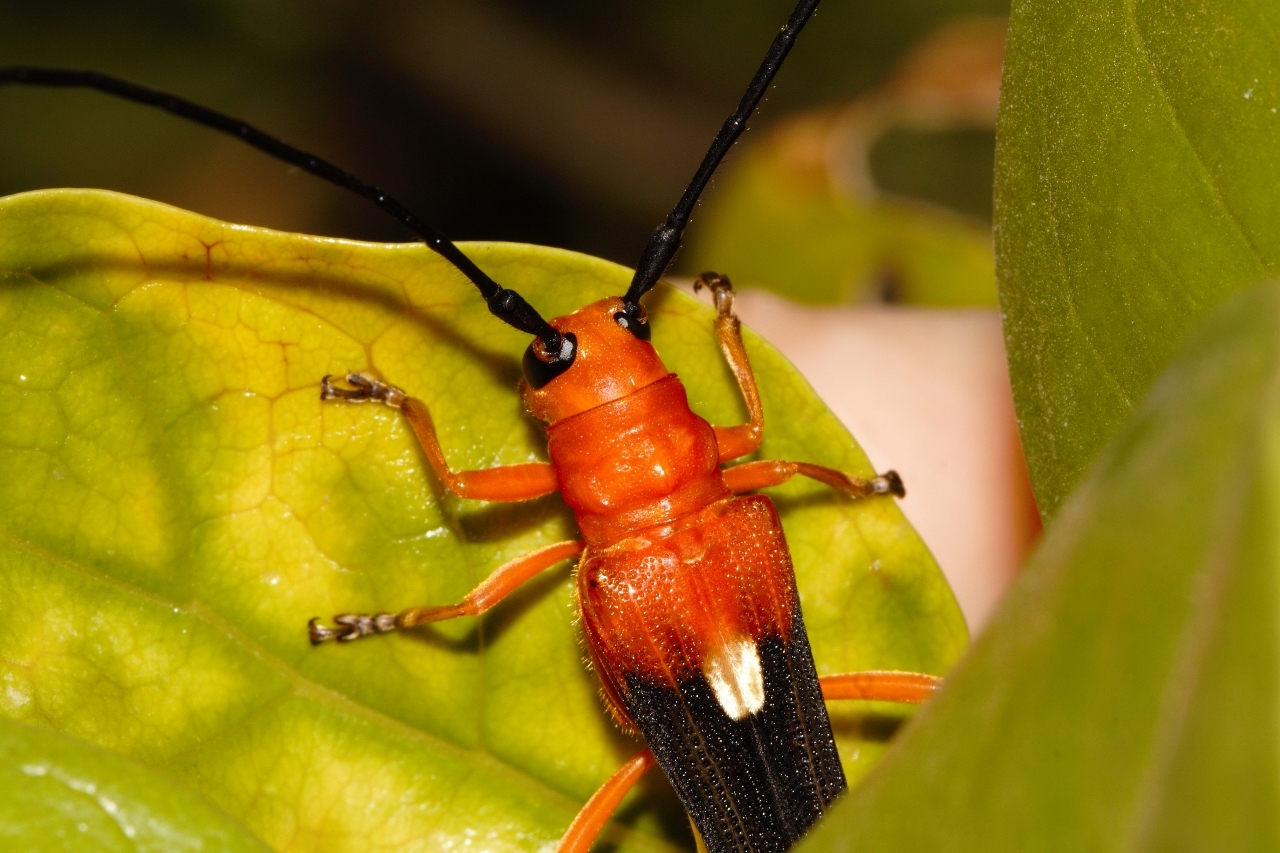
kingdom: Animalia
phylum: Arthropoda
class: Insecta
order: Coleoptera
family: Cerambycidae
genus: Leuconitocris
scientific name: Leuconitocris
